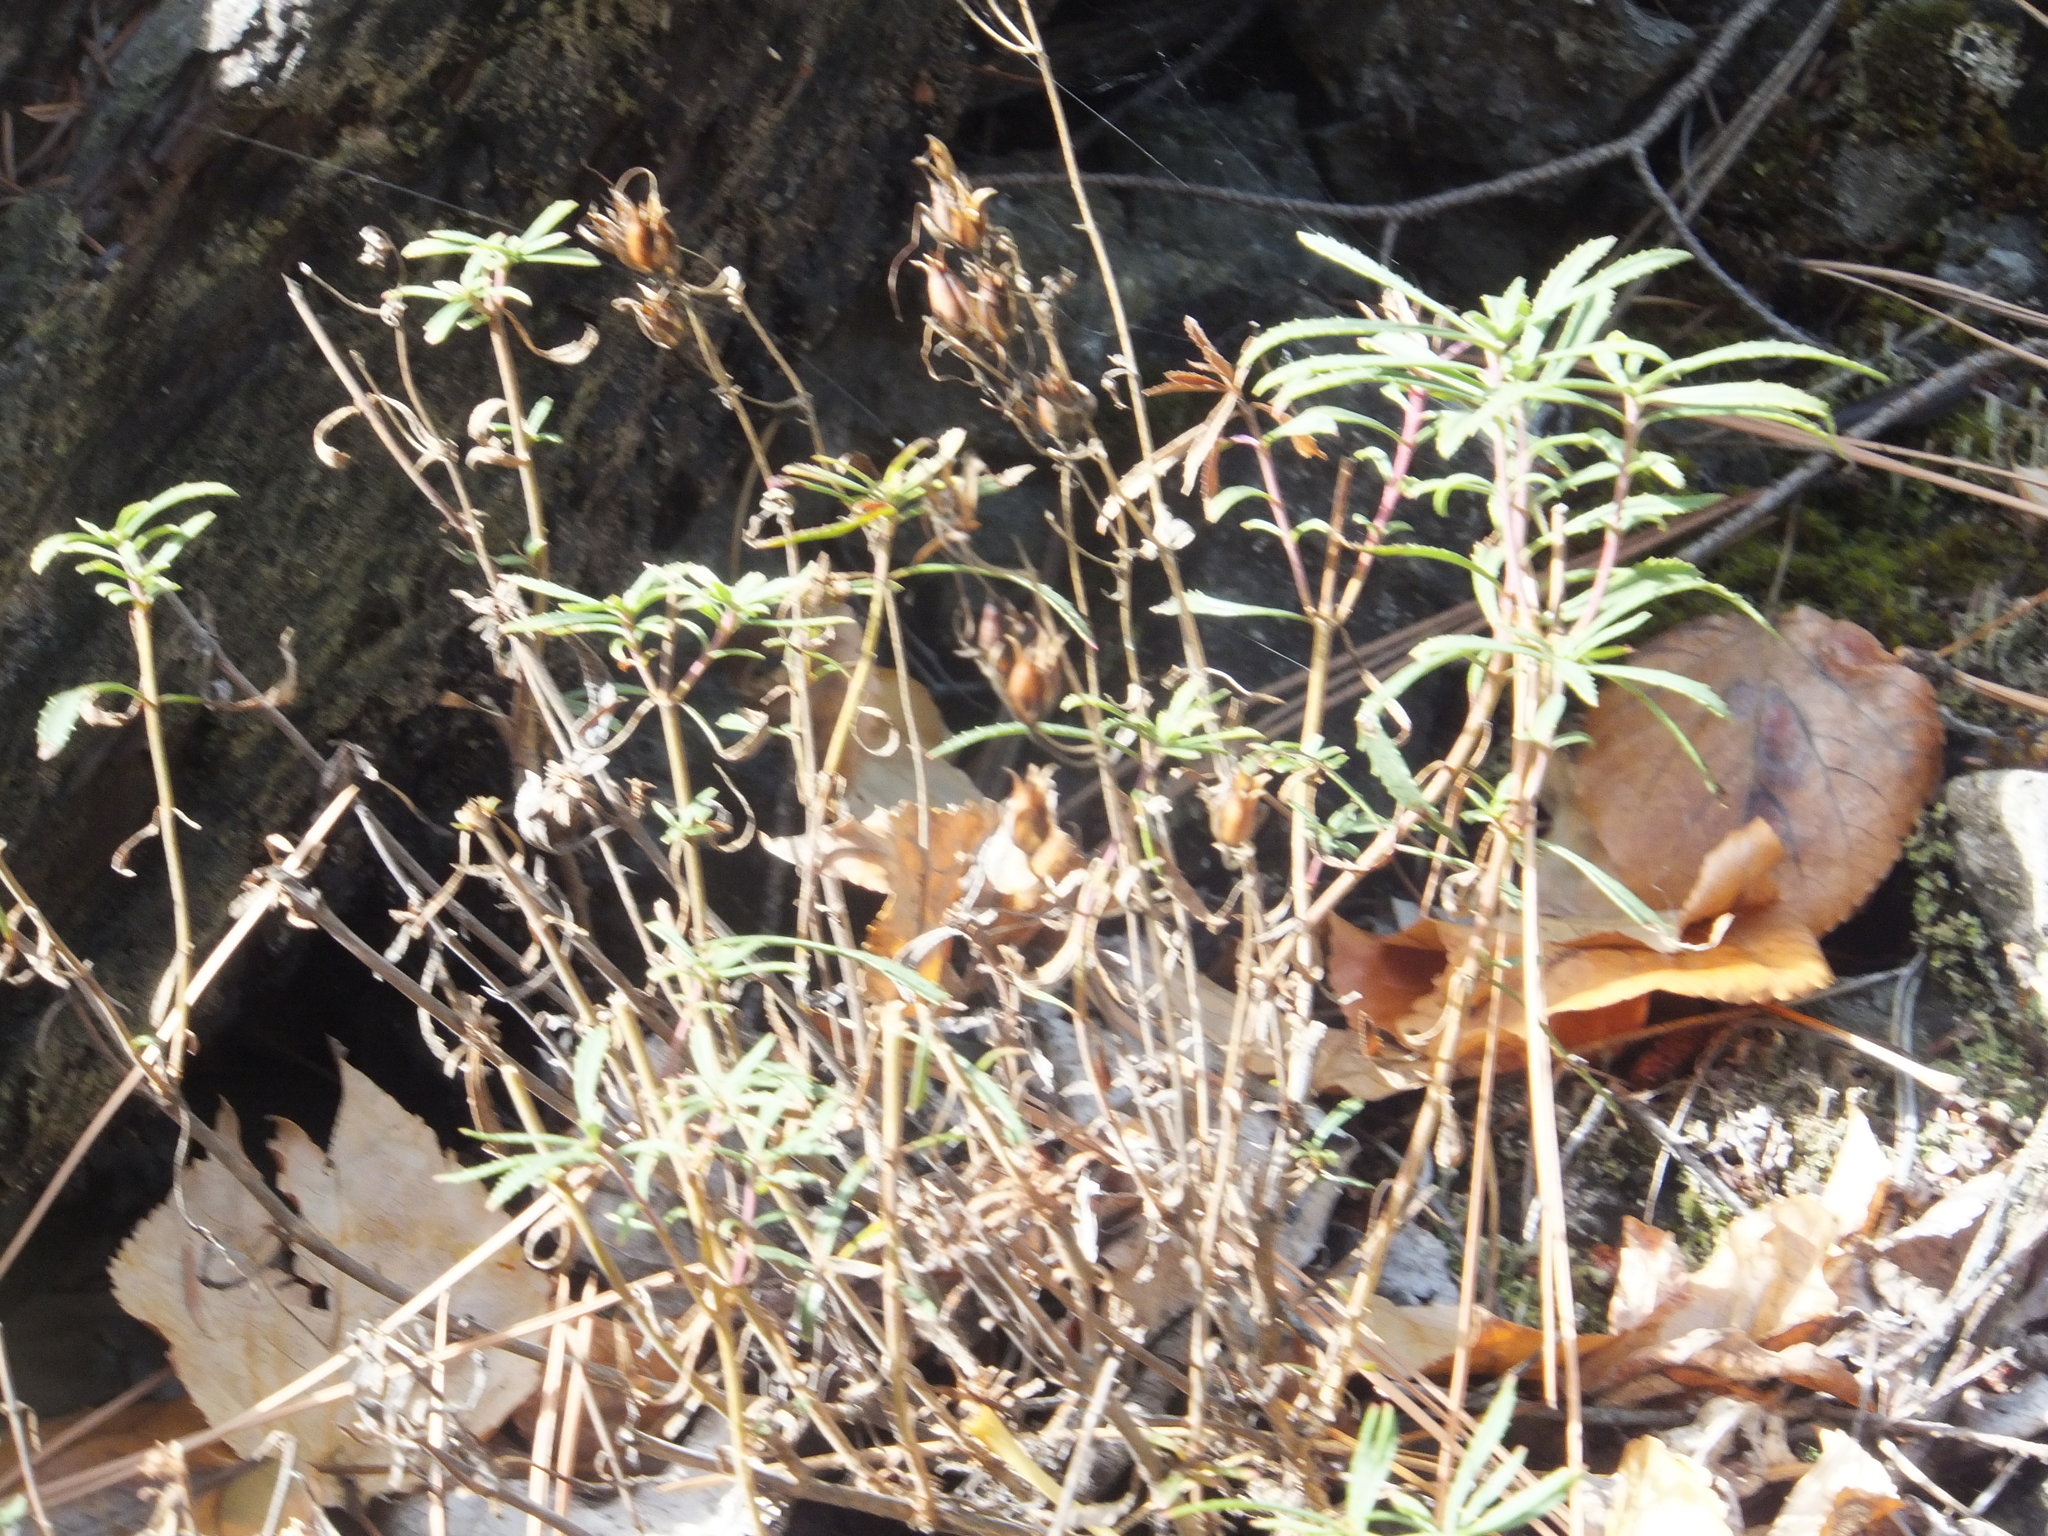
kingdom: Plantae
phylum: Tracheophyta
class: Magnoliopsida
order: Lamiales
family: Plantaginaceae
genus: Penstemon
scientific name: Penstemon fruticosus
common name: Bush penstemon
